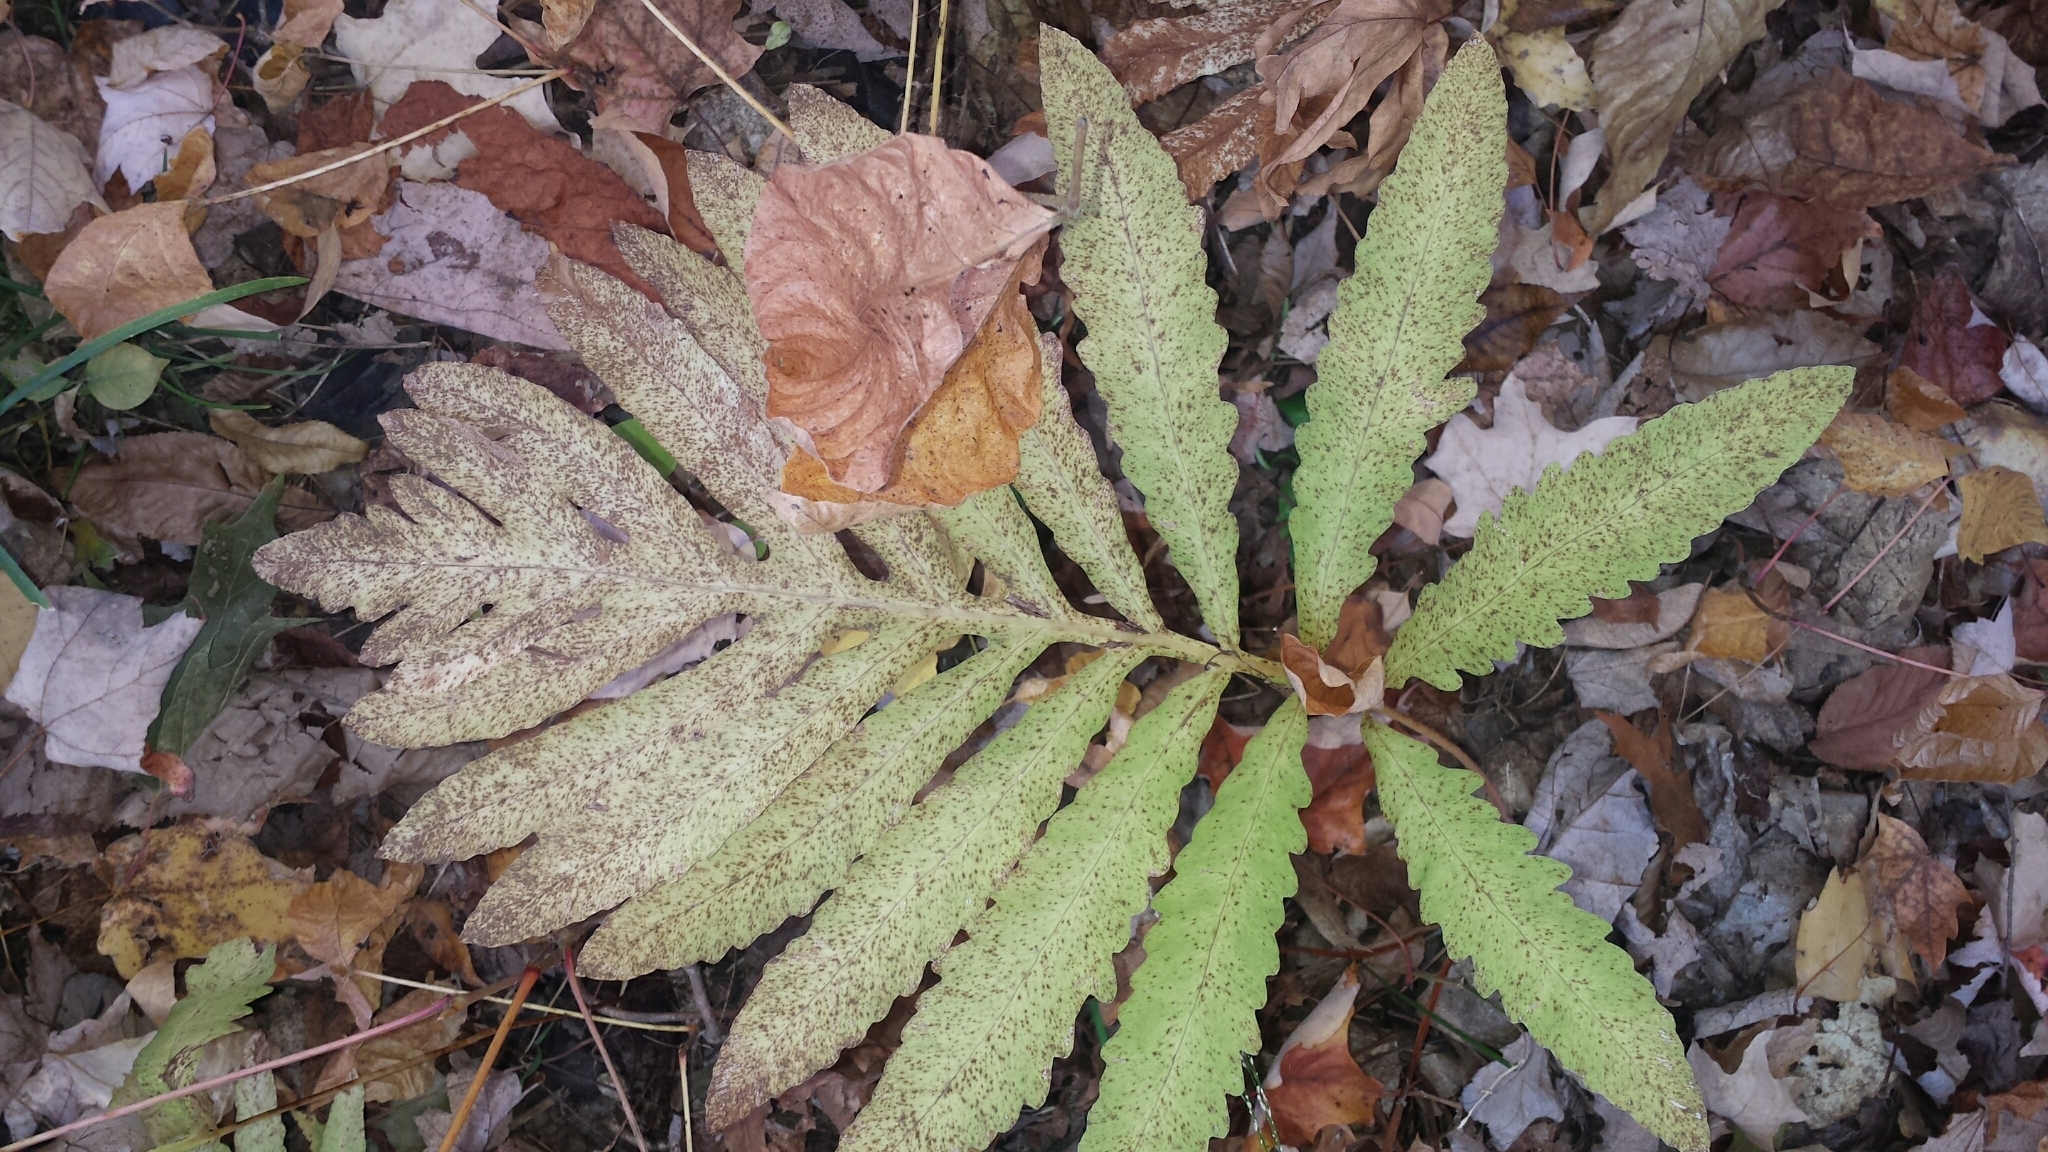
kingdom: Plantae
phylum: Tracheophyta
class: Polypodiopsida
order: Polypodiales
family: Onocleaceae
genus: Onoclea
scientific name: Onoclea sensibilis
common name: Sensitive fern
